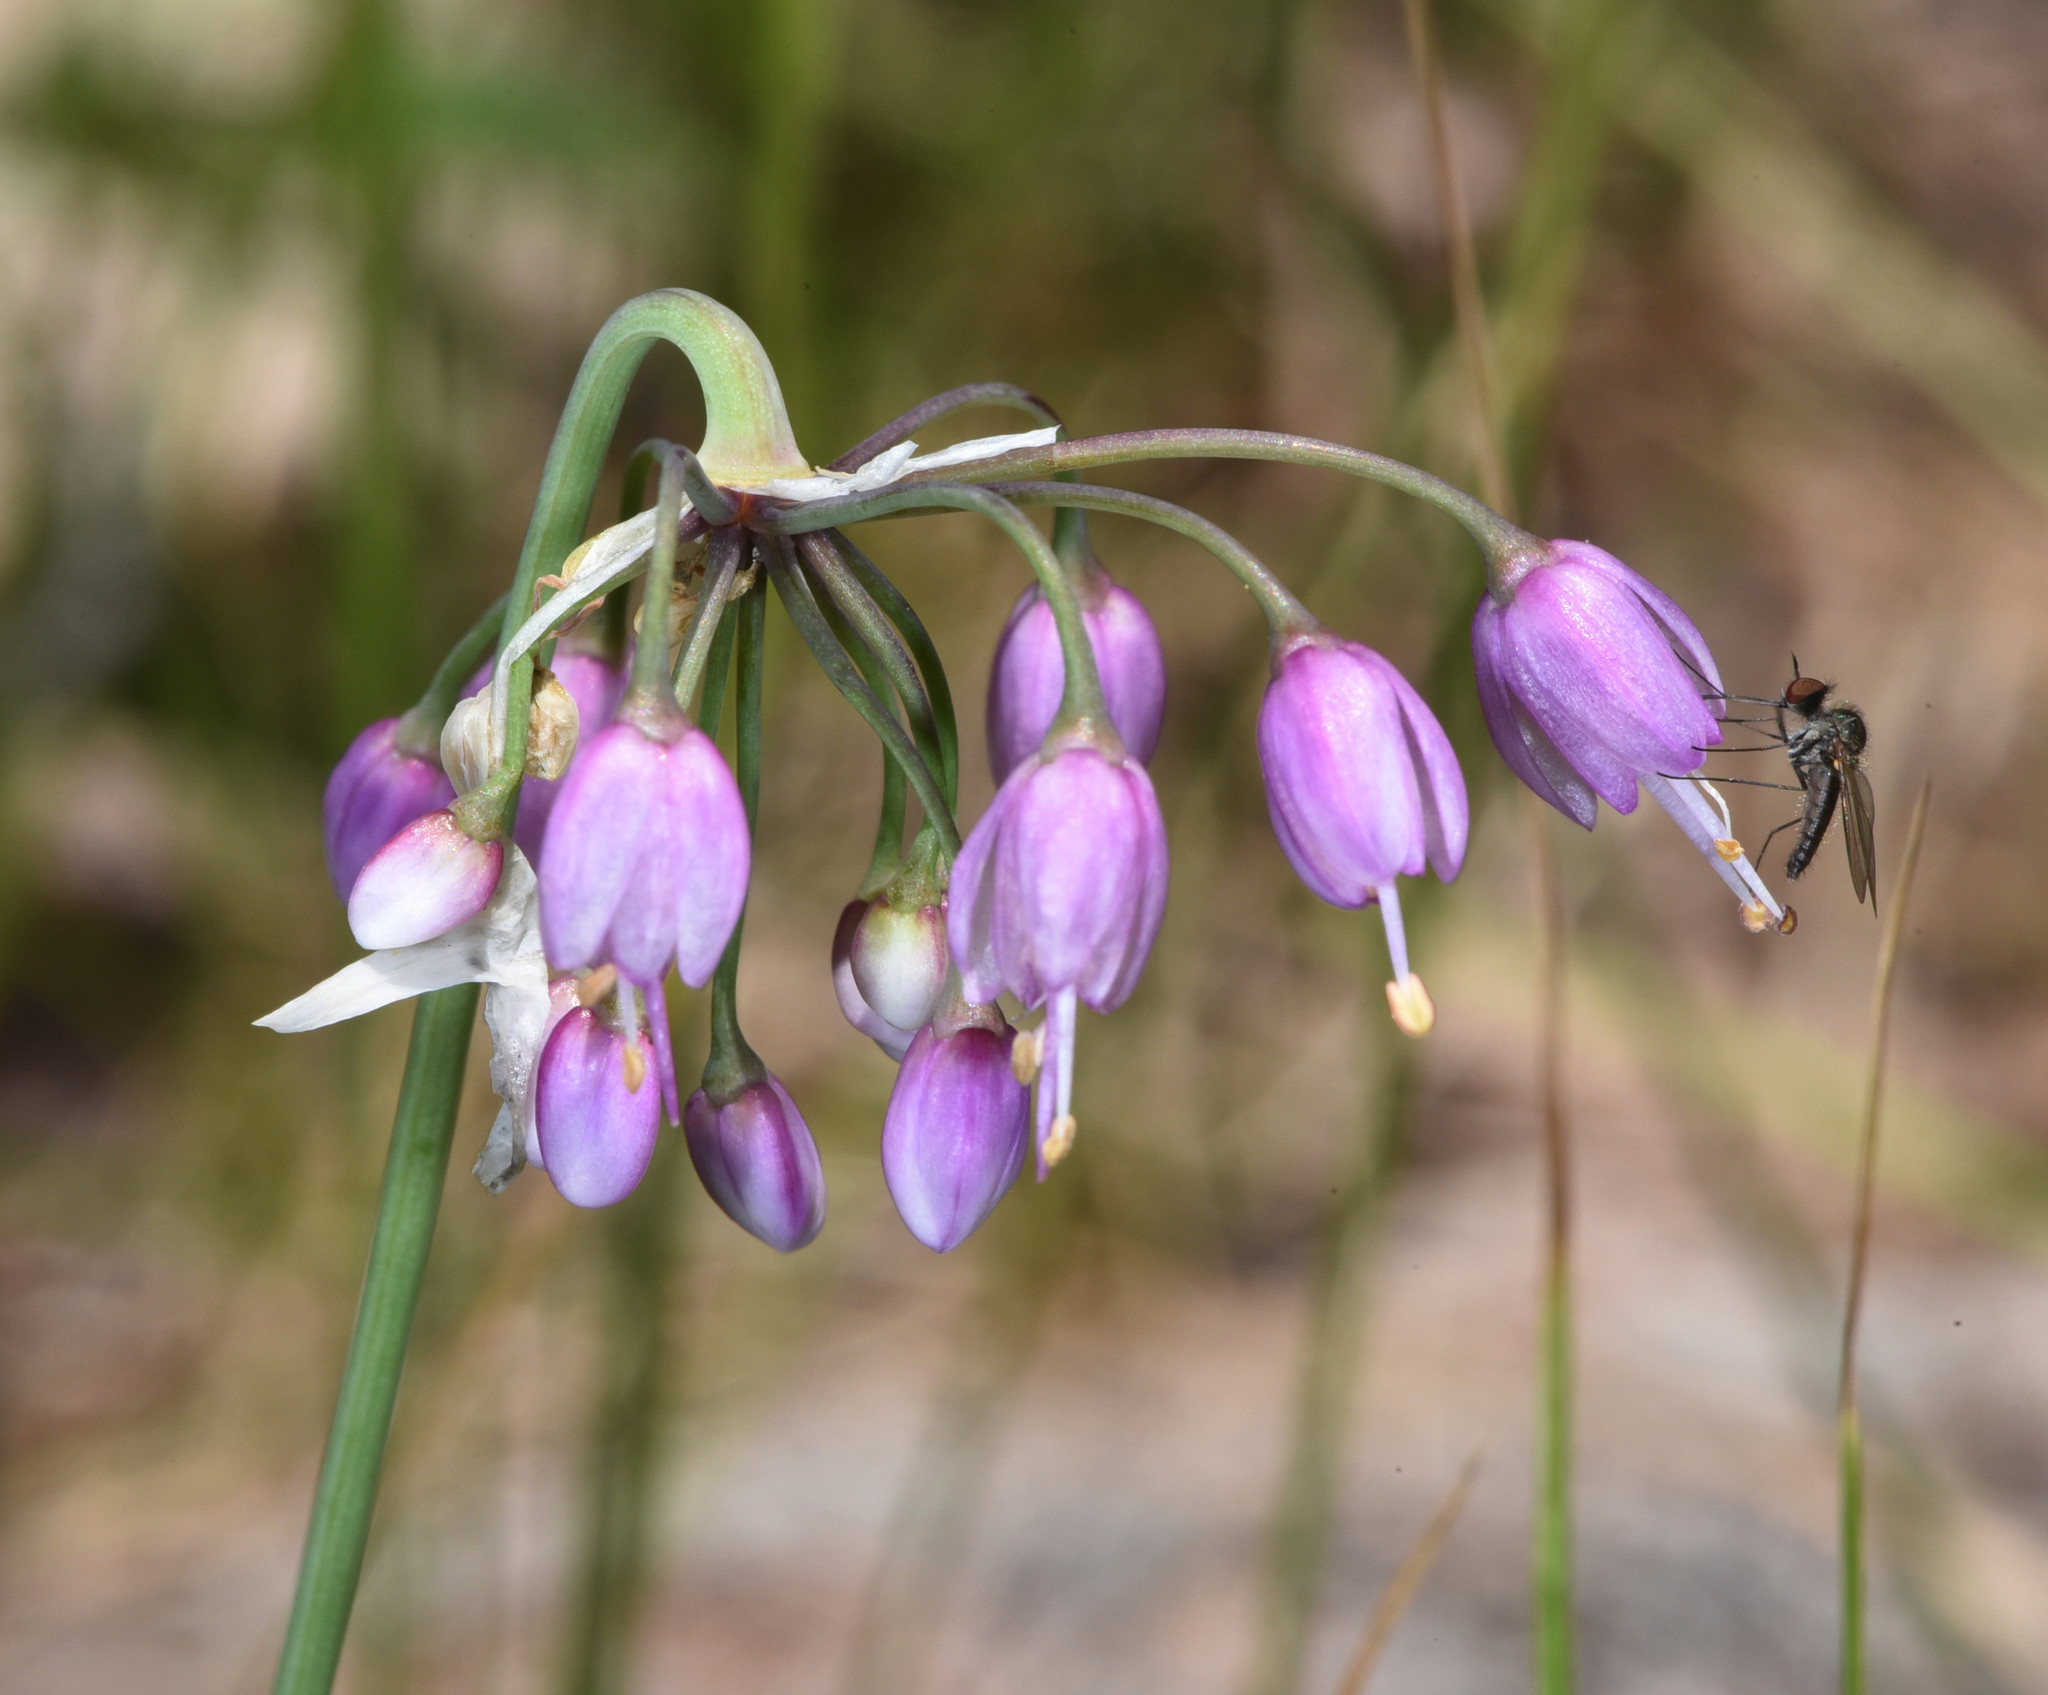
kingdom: Plantae
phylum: Tracheophyta
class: Liliopsida
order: Asparagales
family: Amaryllidaceae
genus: Allium
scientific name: Allium cernuum
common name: Nodding onion
